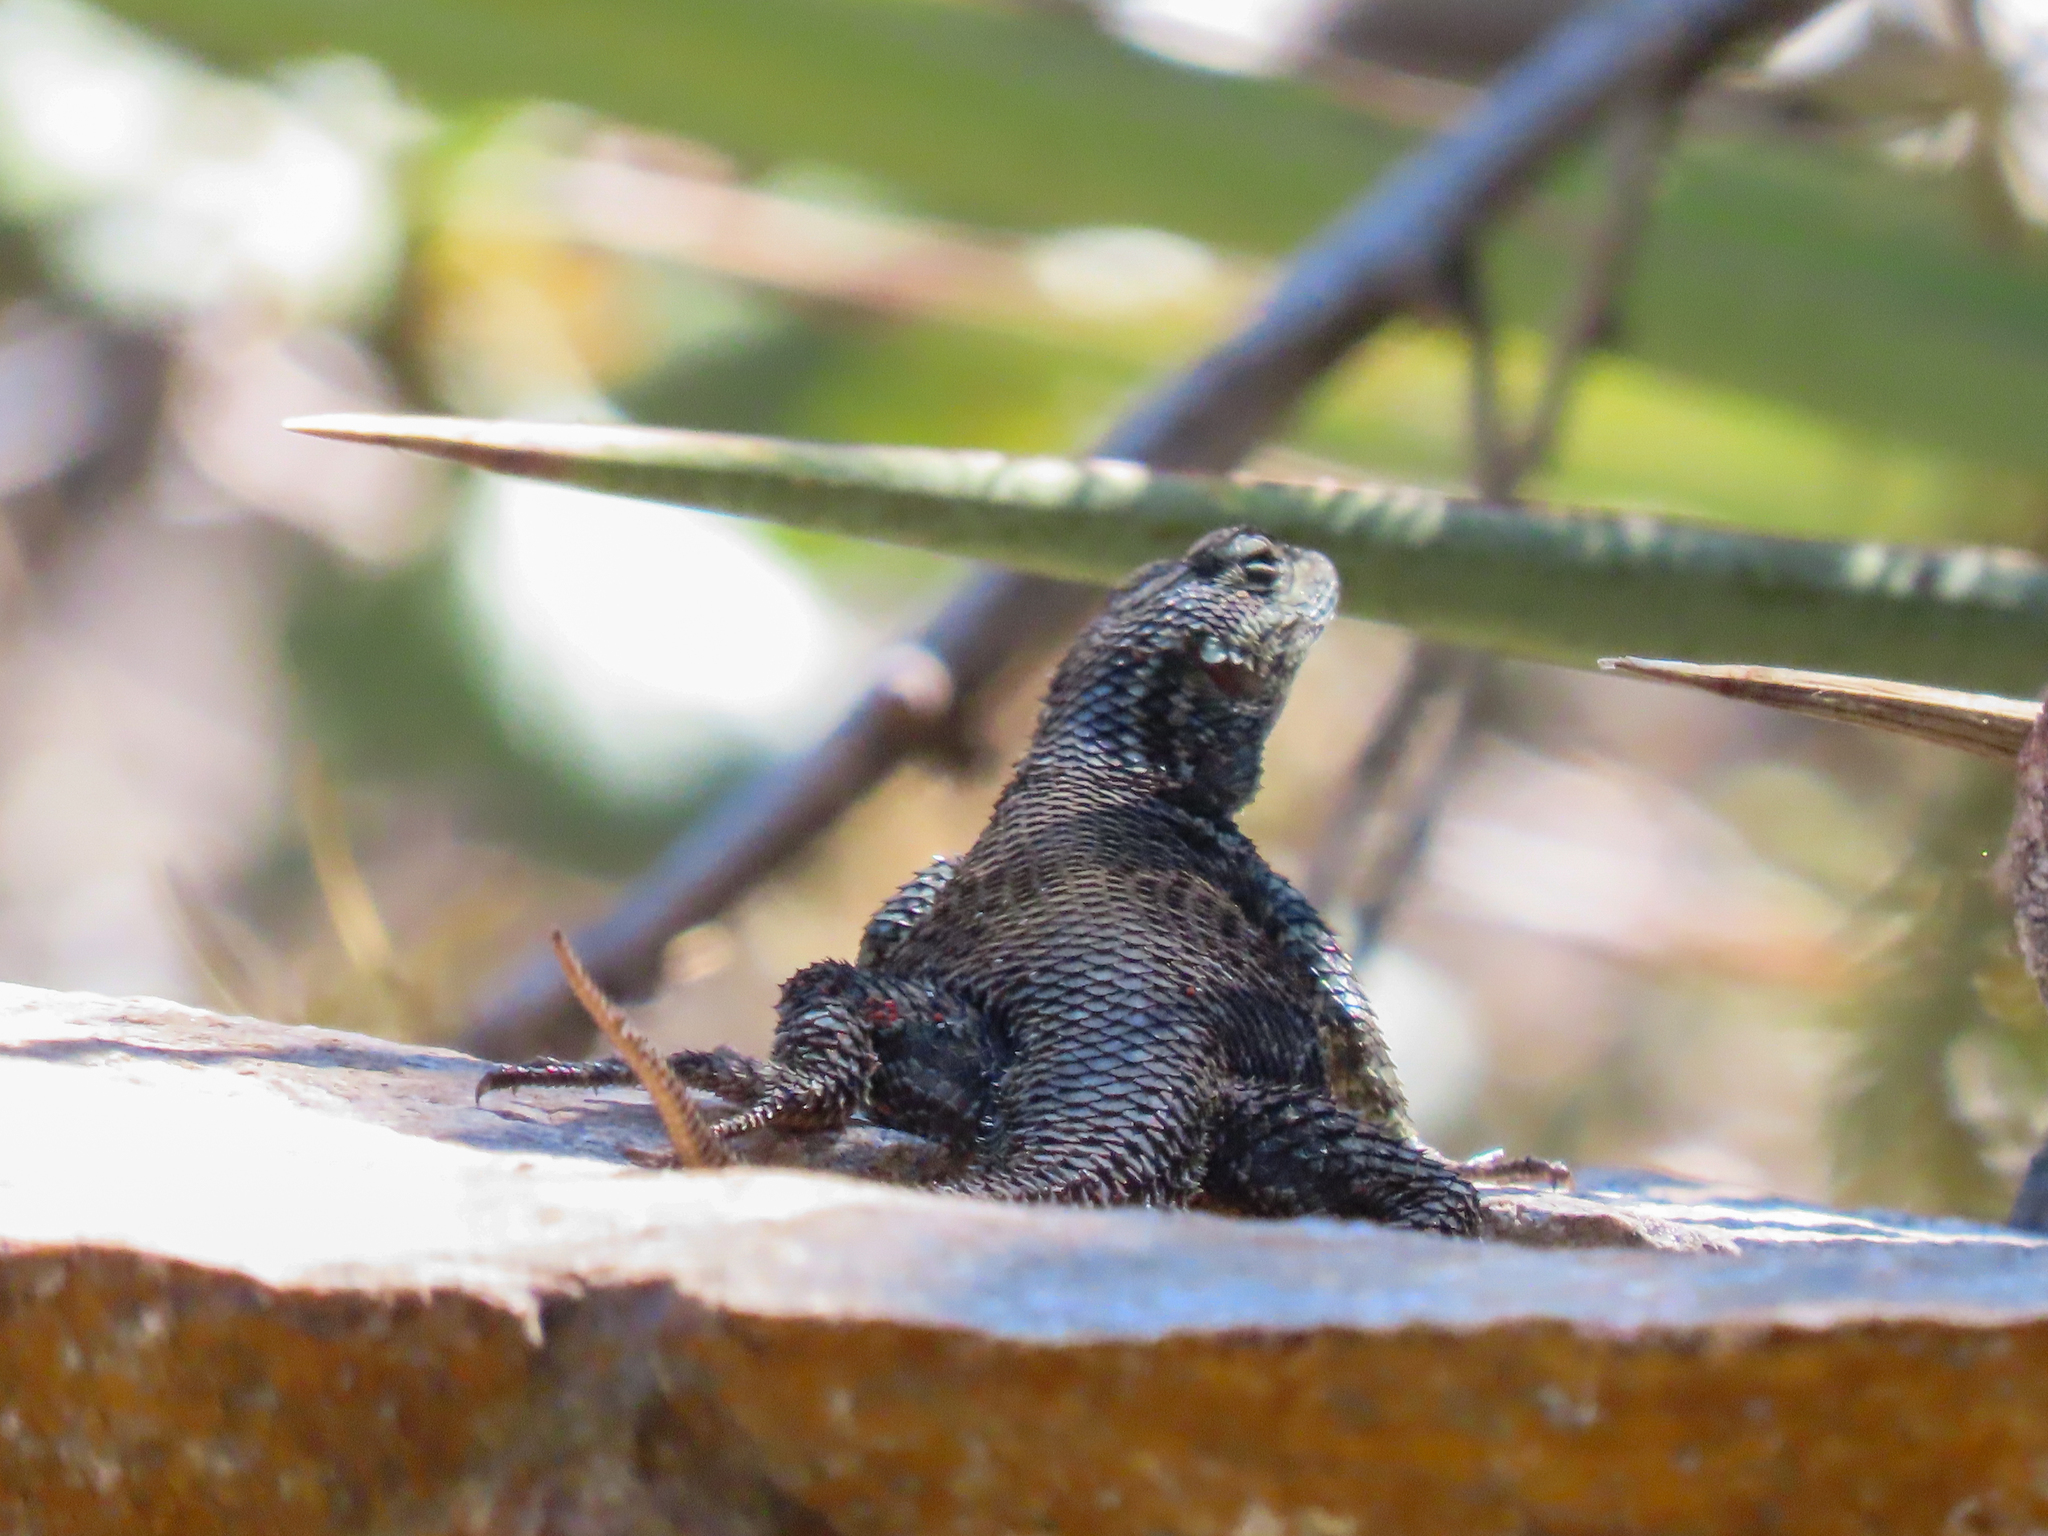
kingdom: Animalia
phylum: Chordata
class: Squamata
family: Phrynosomatidae
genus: Sceloporus
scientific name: Sceloporus jarrovii
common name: Yarrow's spiny lizard
